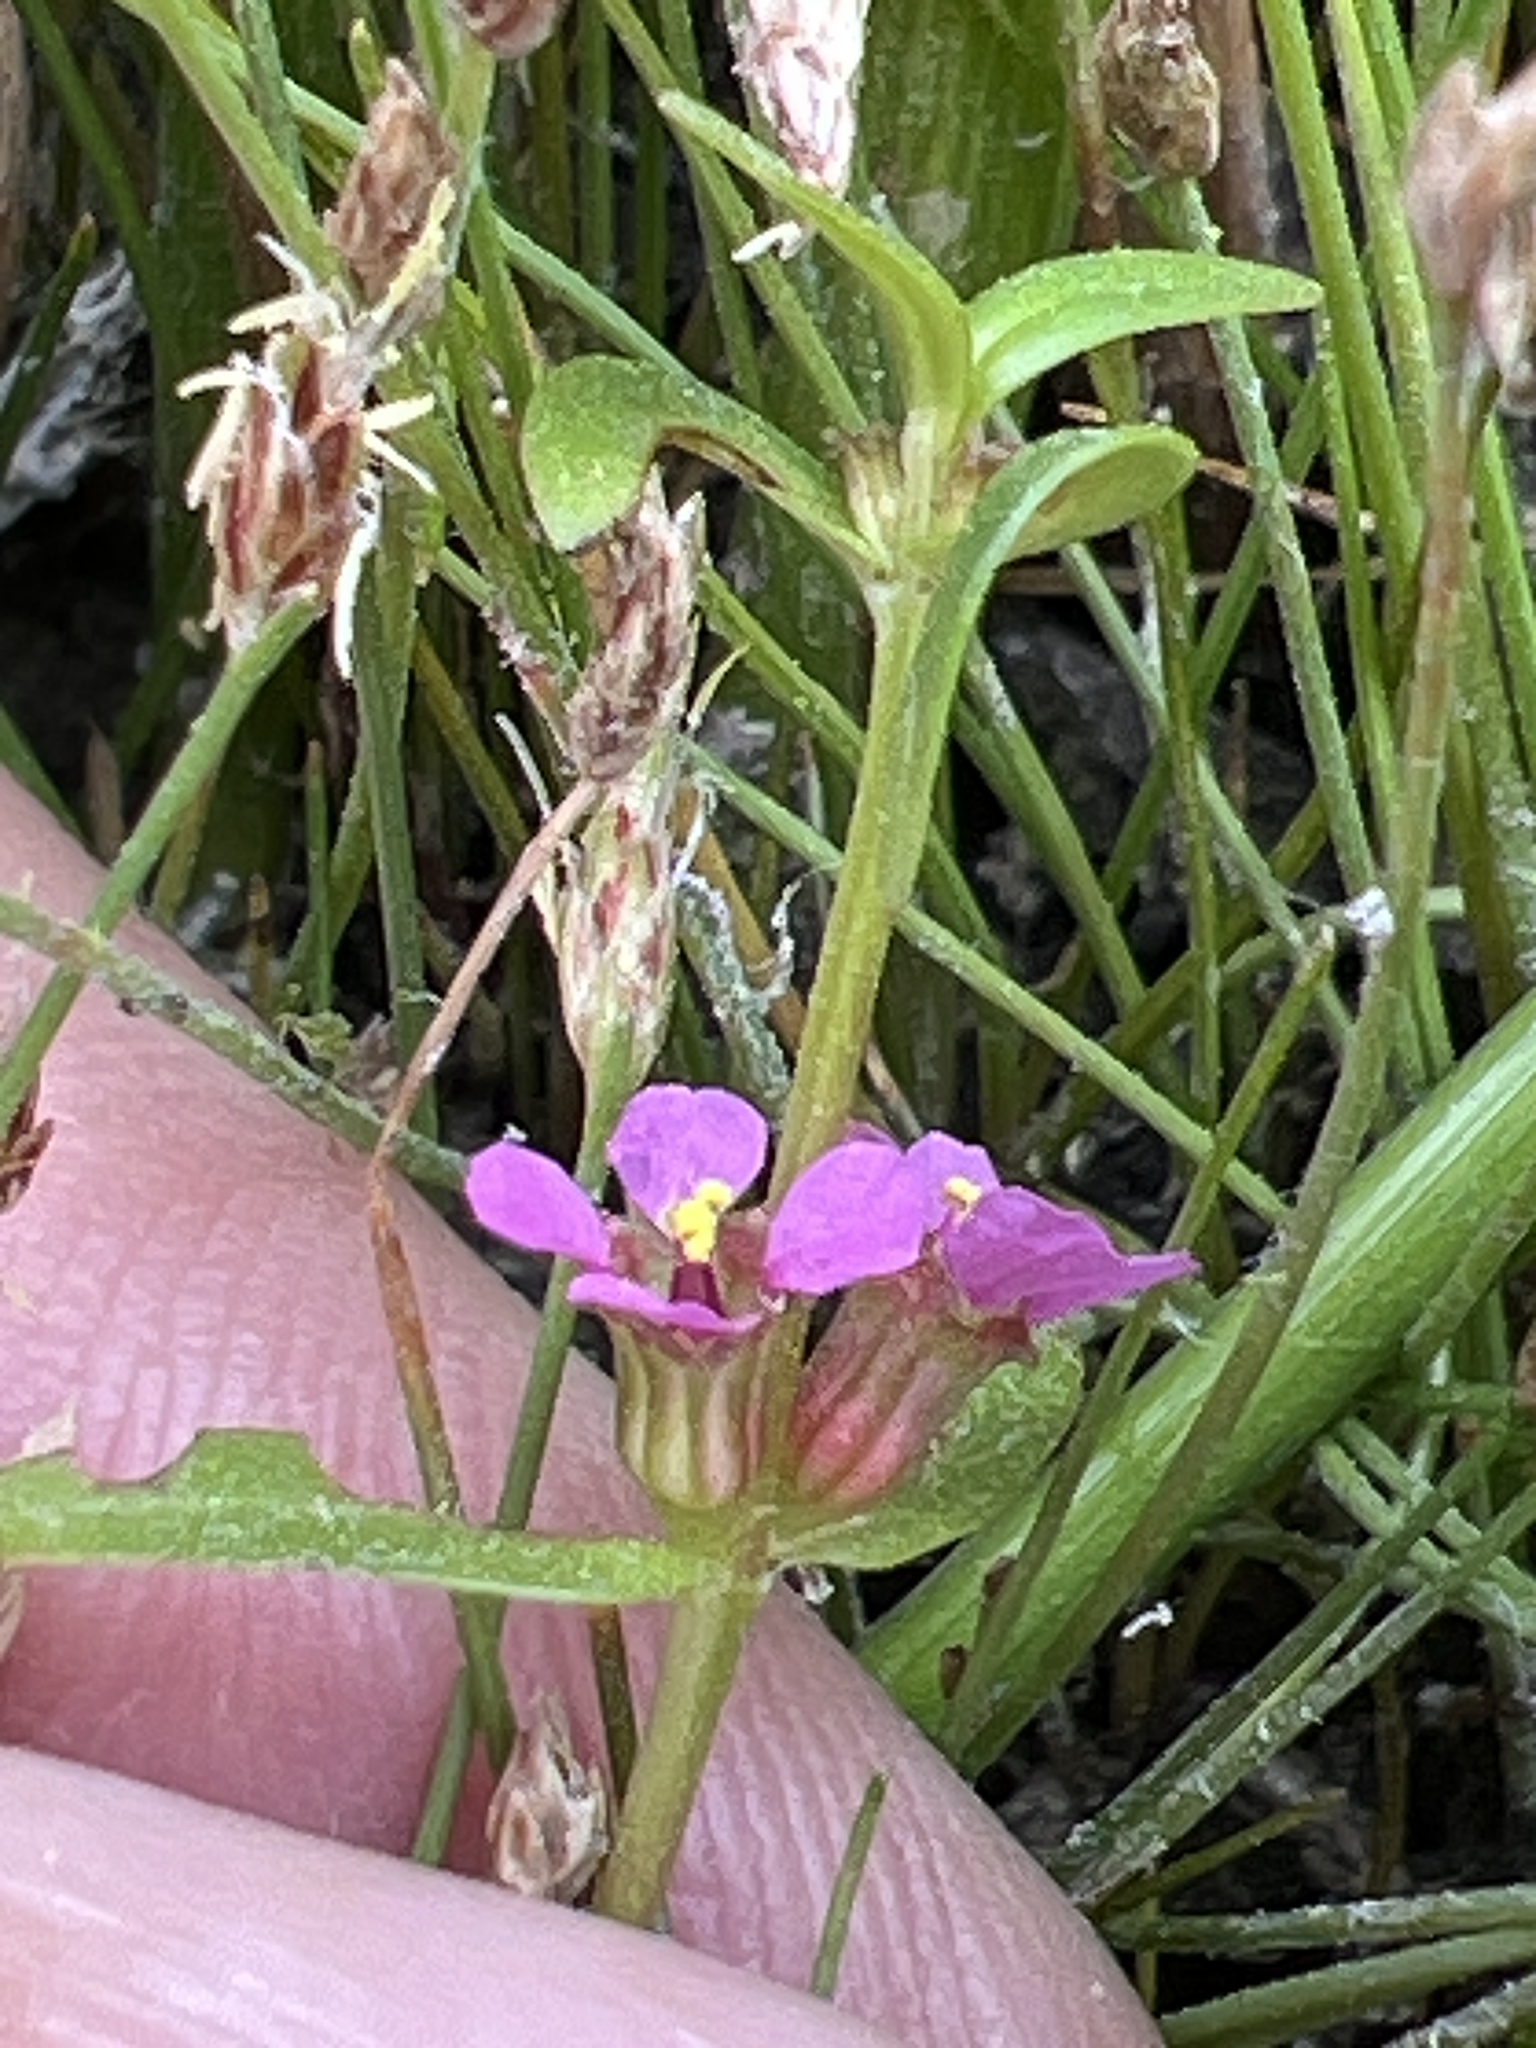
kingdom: Plantae
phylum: Tracheophyta
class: Magnoliopsida
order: Myrtales
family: Lythraceae
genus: Ammannia
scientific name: Ammannia coccinea
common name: Valley redstem
